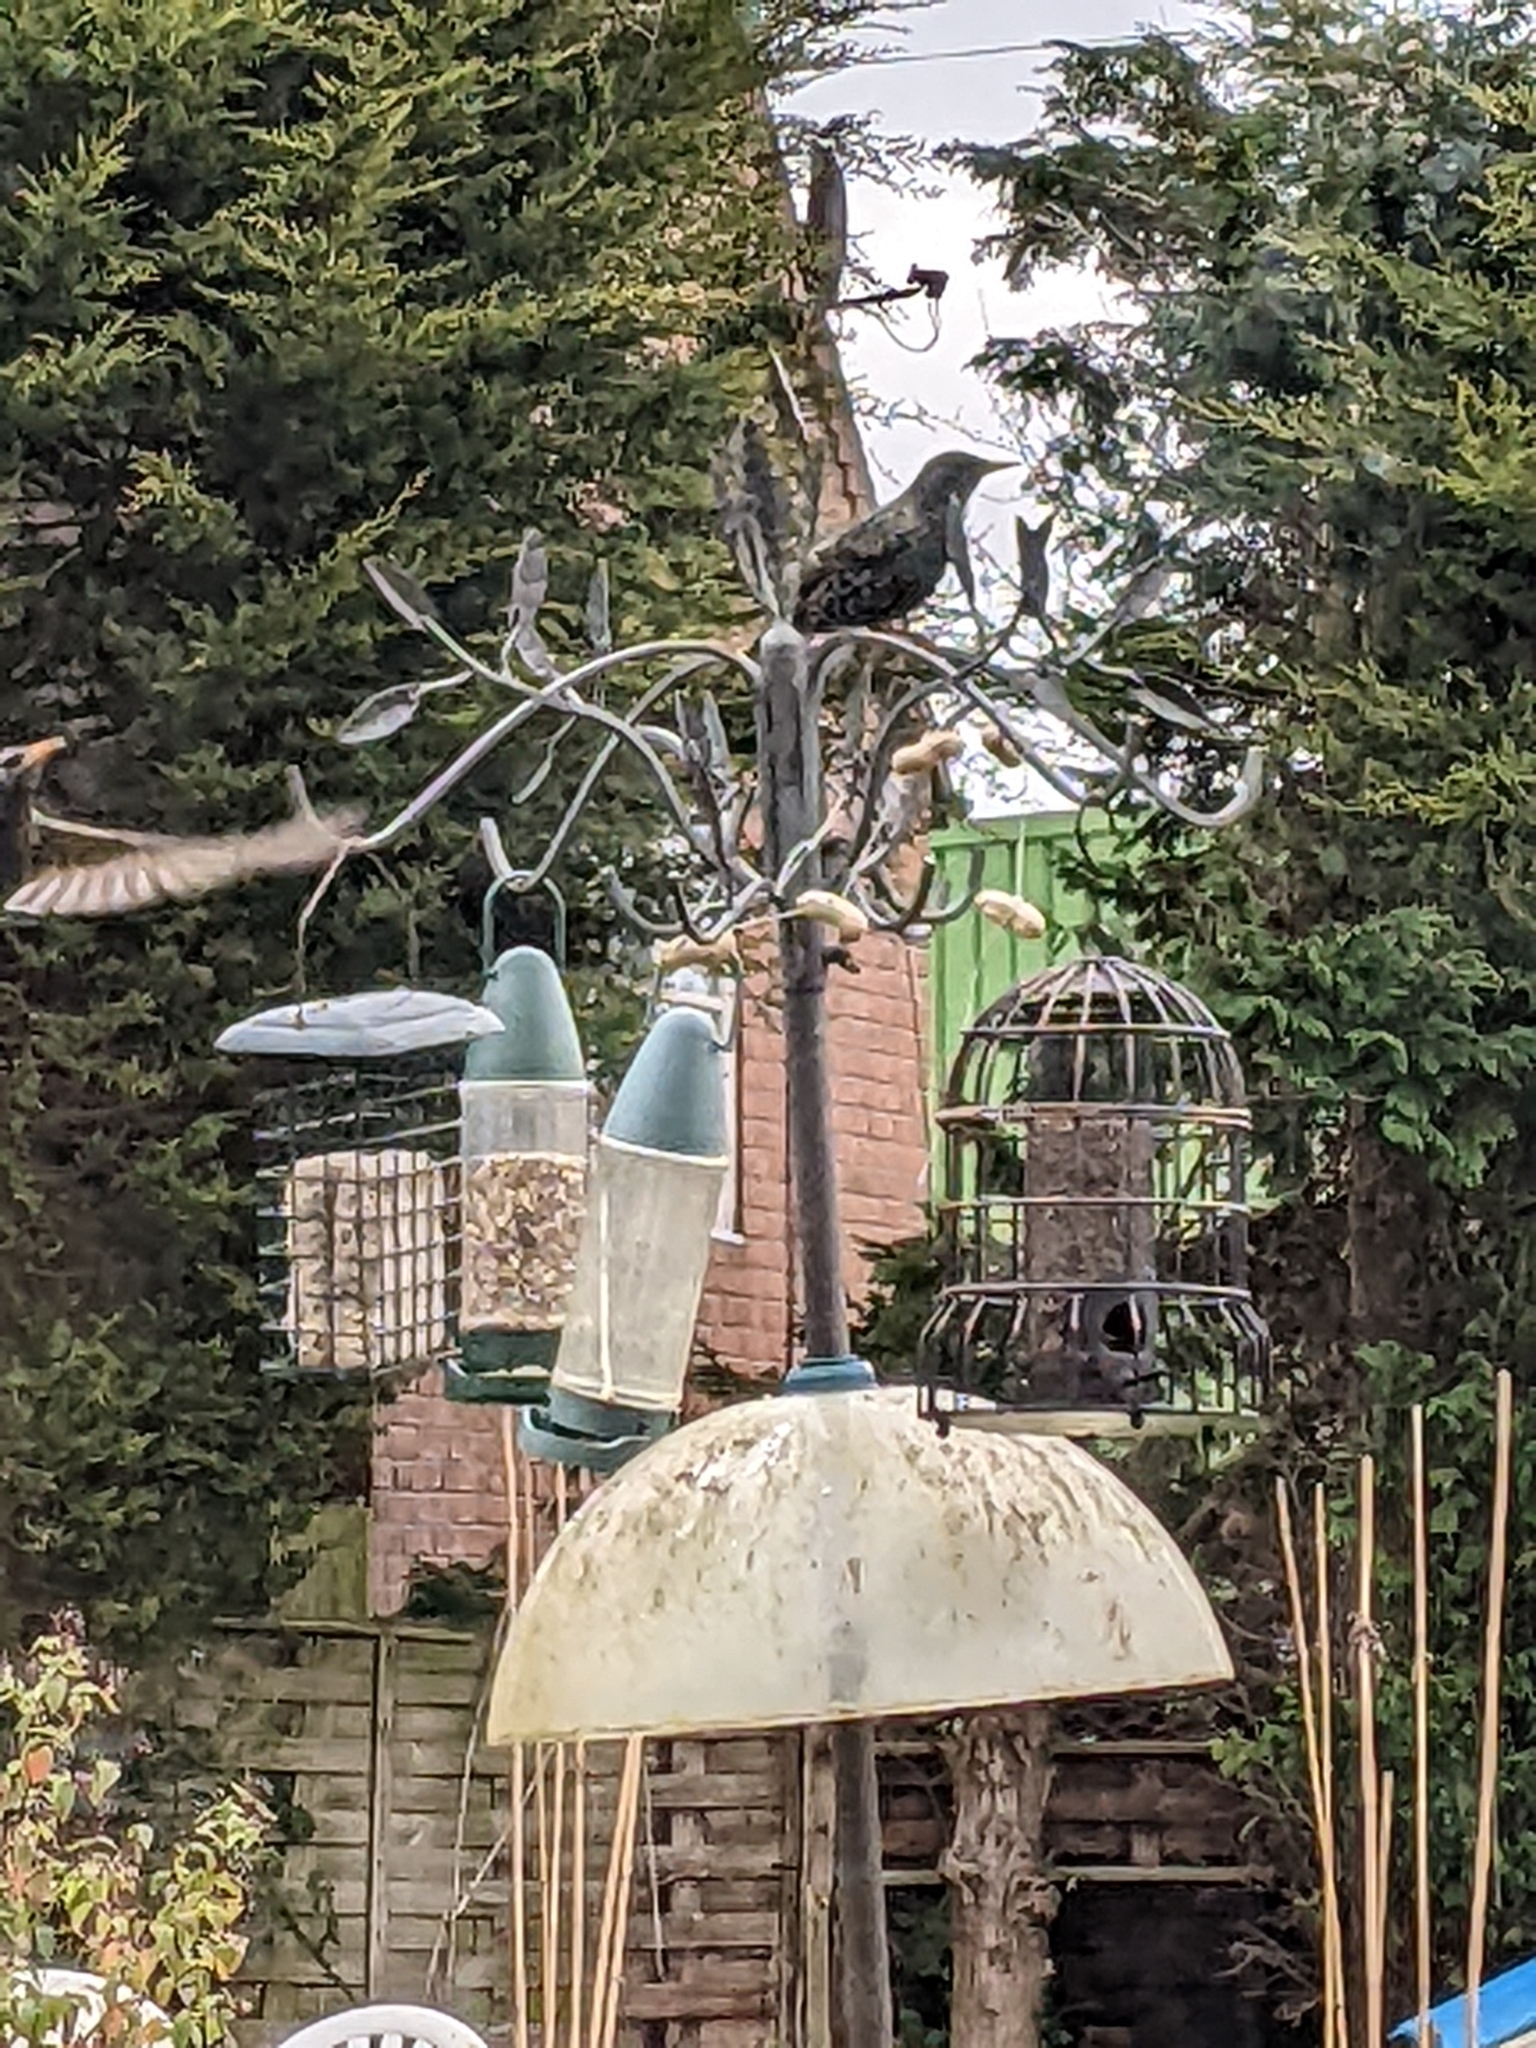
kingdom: Animalia
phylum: Chordata
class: Aves
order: Passeriformes
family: Sturnidae
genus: Sturnus
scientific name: Sturnus vulgaris
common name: Common starling
